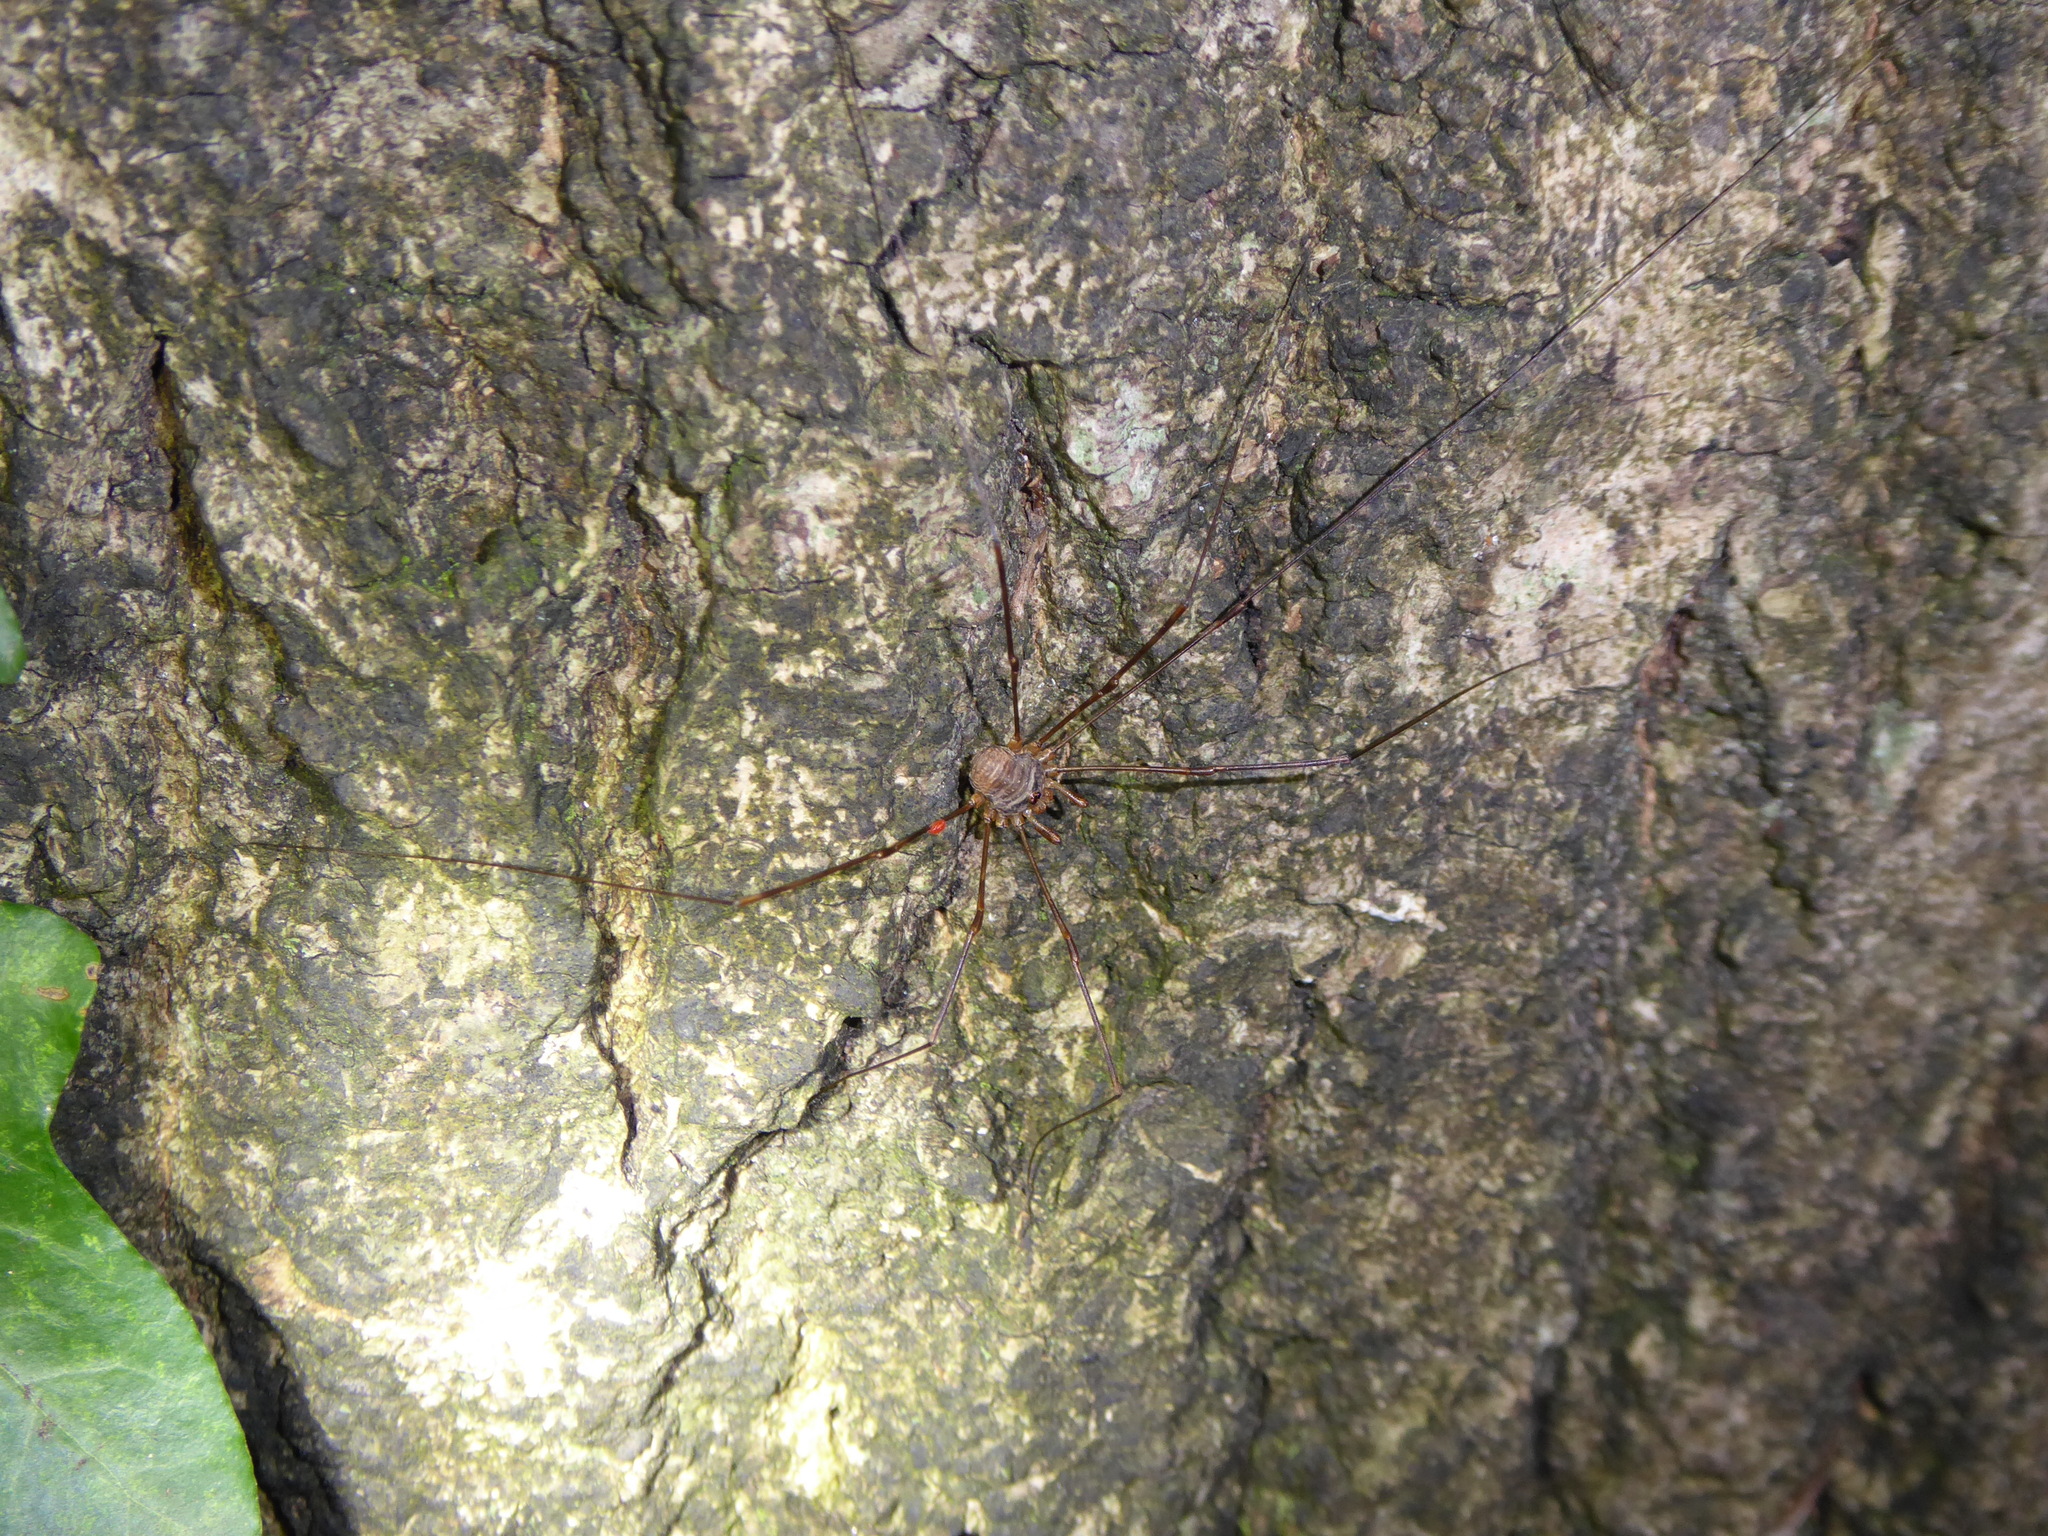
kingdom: Animalia
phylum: Arthropoda
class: Arachnida
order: Opiliones
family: Phalangiidae
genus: Dicranopalpus
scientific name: Dicranopalpus
